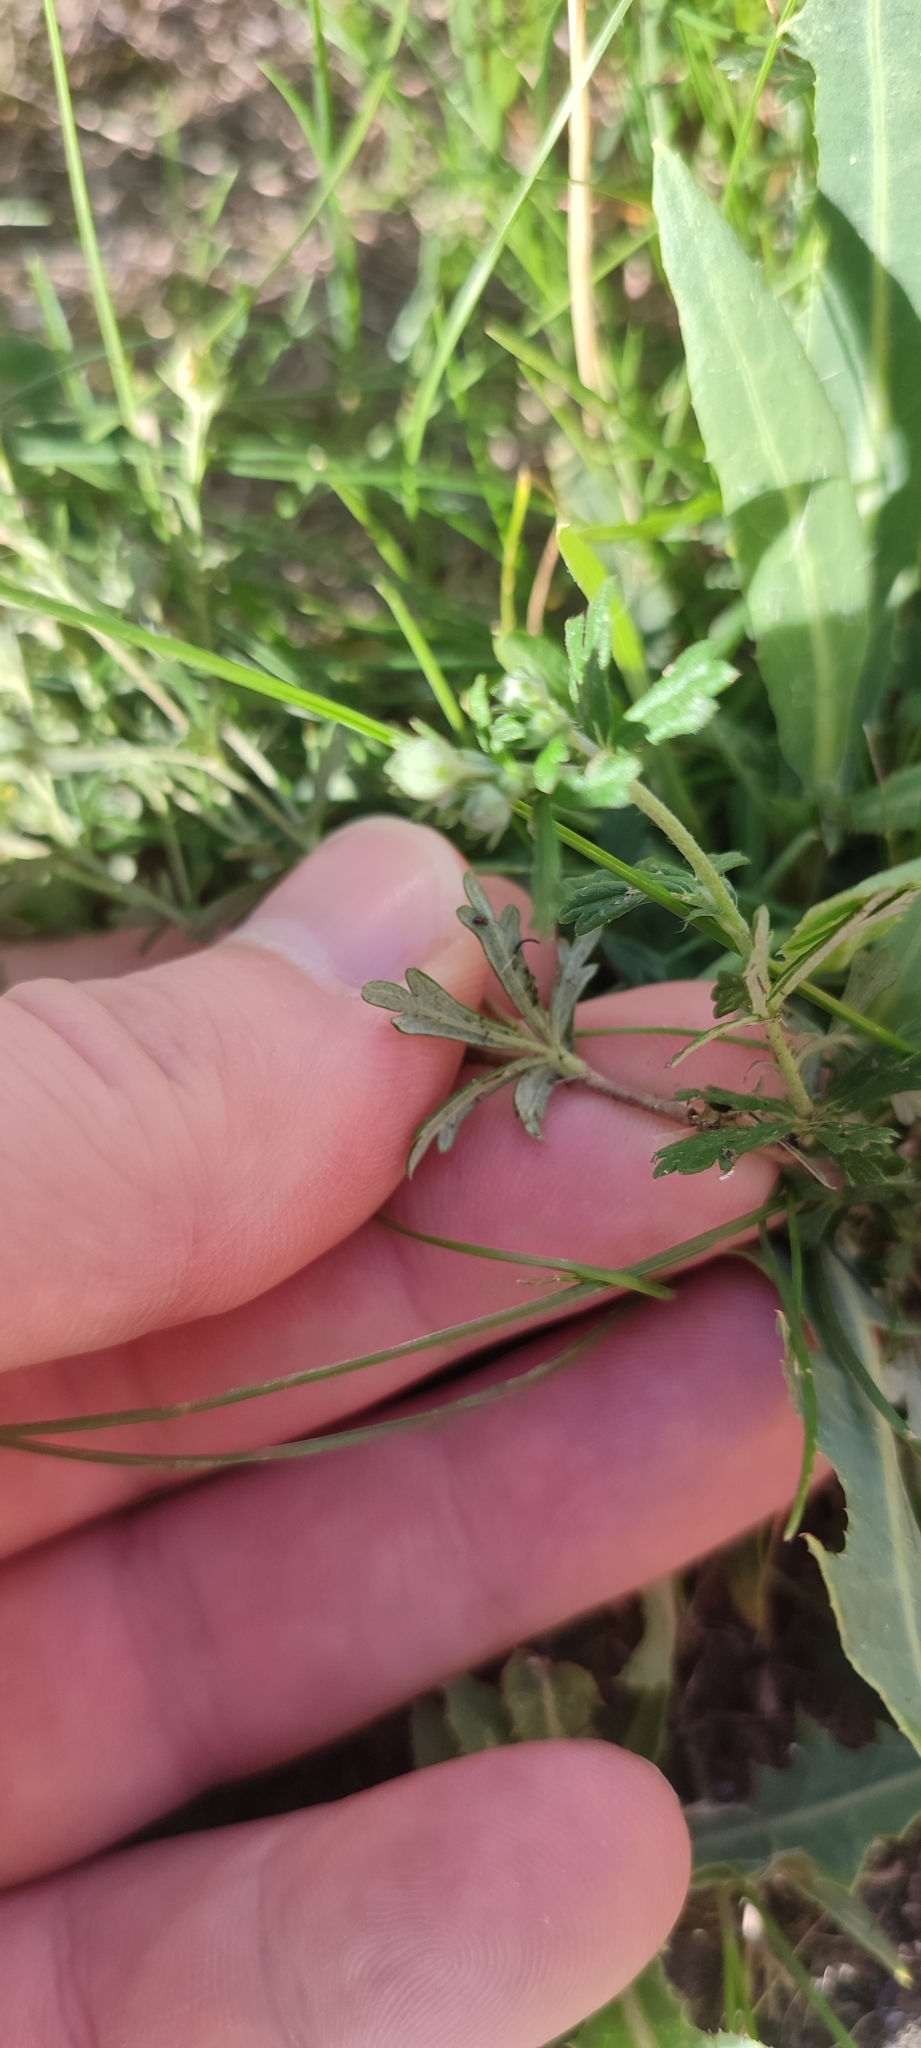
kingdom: Plantae
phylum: Tracheophyta
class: Magnoliopsida
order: Rosales
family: Rosaceae
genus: Potentilla
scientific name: Potentilla argentea
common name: Hoary cinquefoil
